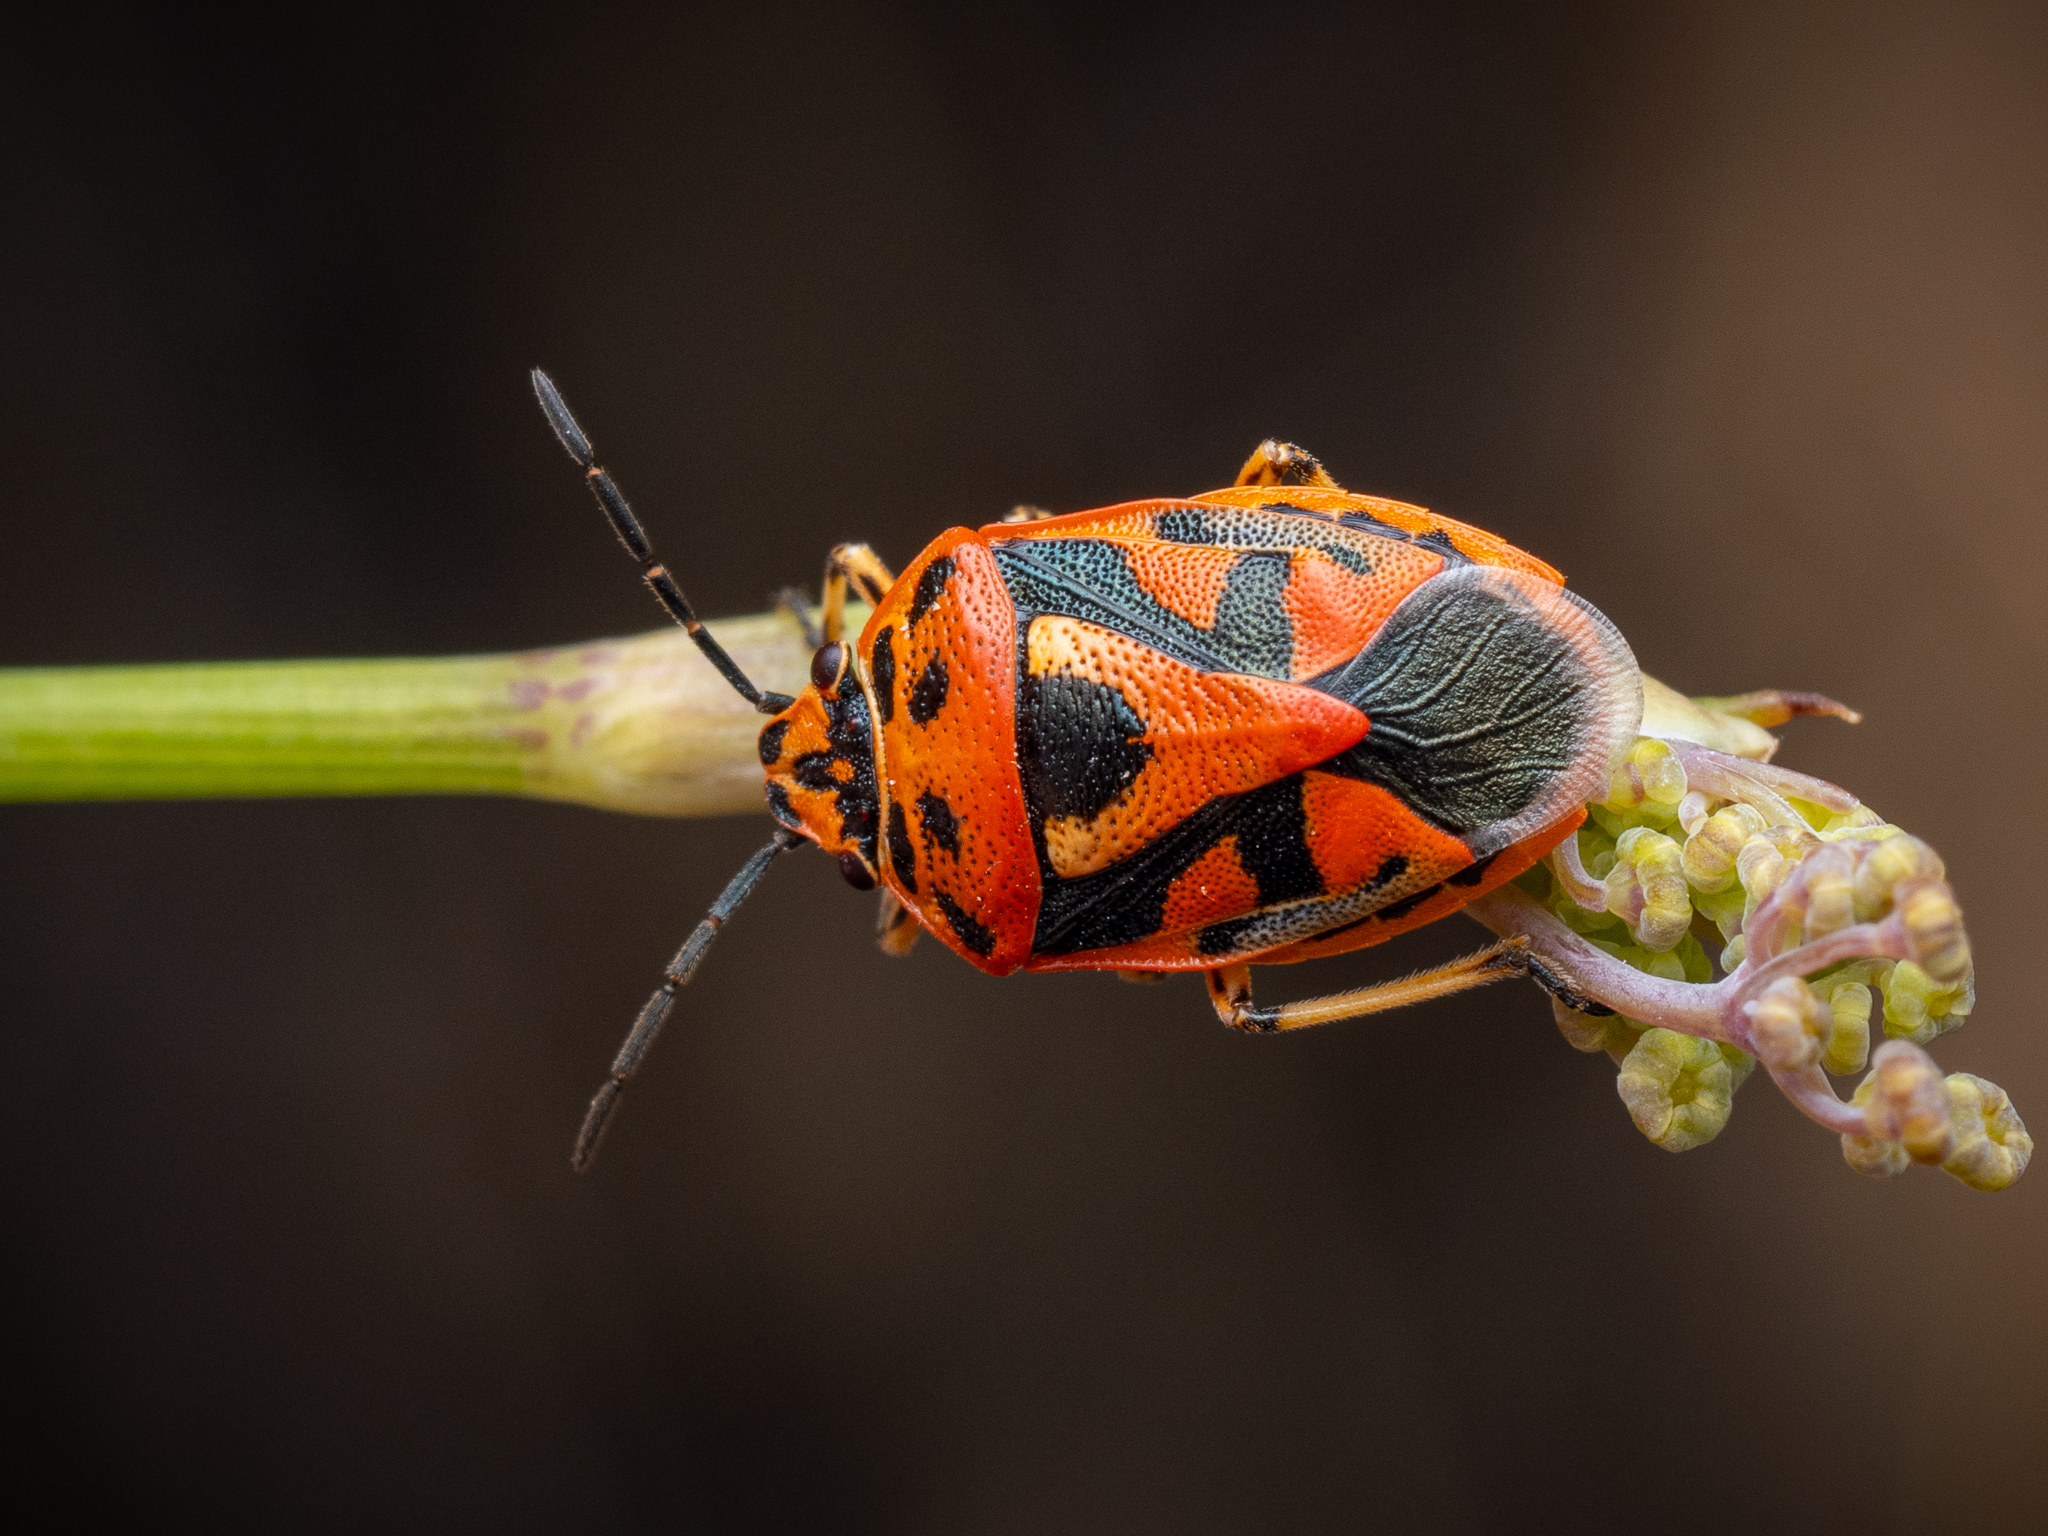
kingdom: Animalia
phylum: Arthropoda
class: Insecta
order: Hemiptera
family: Pentatomidae
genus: Eurydema
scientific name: Eurydema ornata
